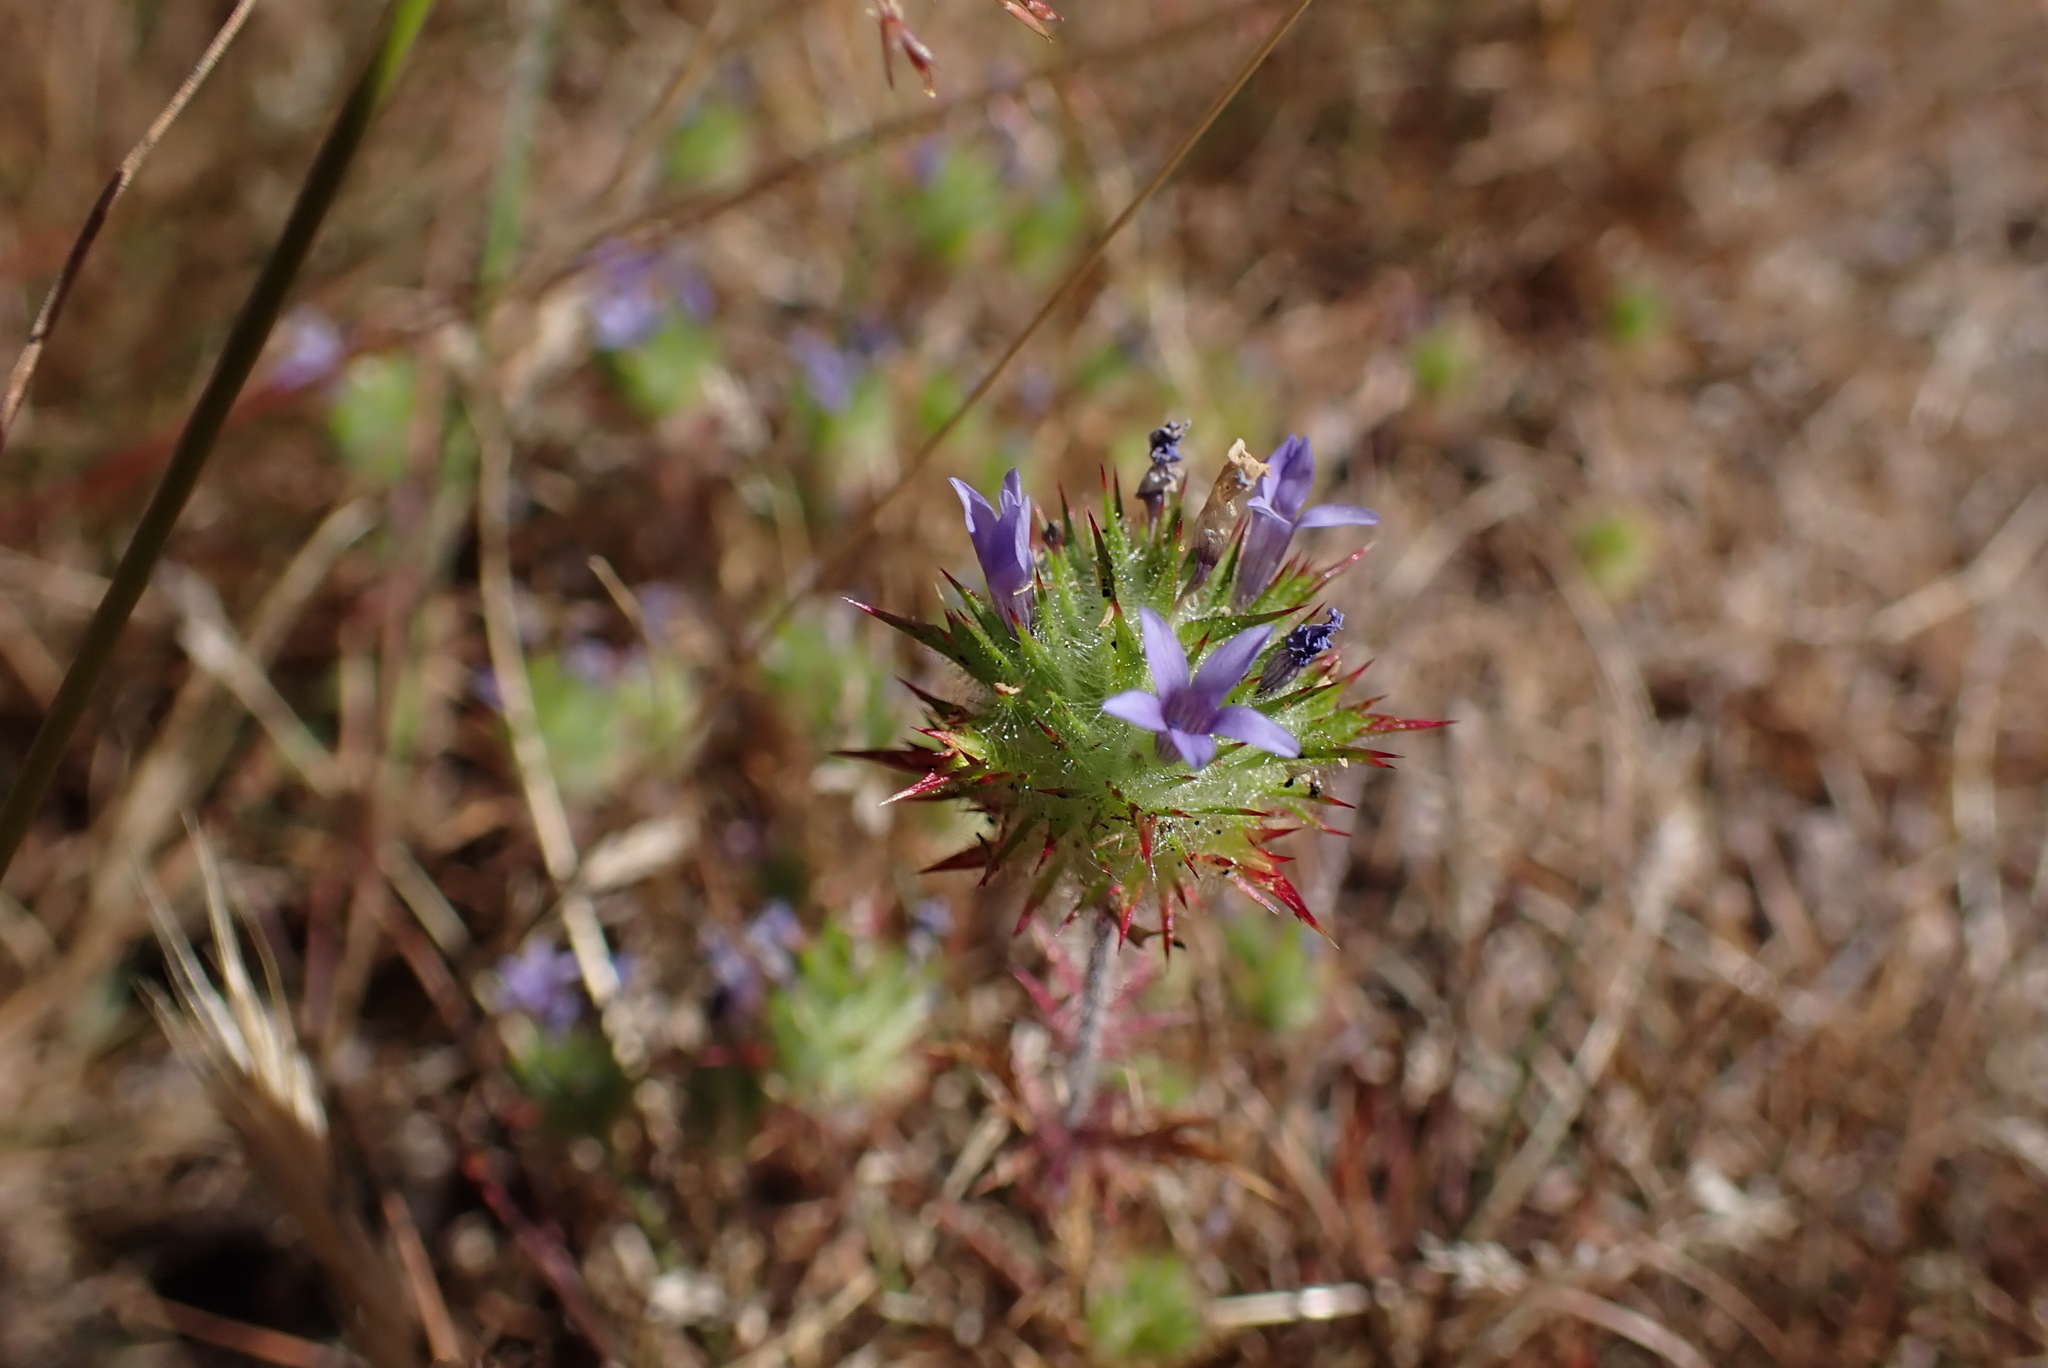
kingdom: Plantae
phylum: Tracheophyta
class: Magnoliopsida
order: Ericales
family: Polemoniaceae
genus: Navarretia
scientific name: Navarretia squarrosa
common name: Skunkweed
